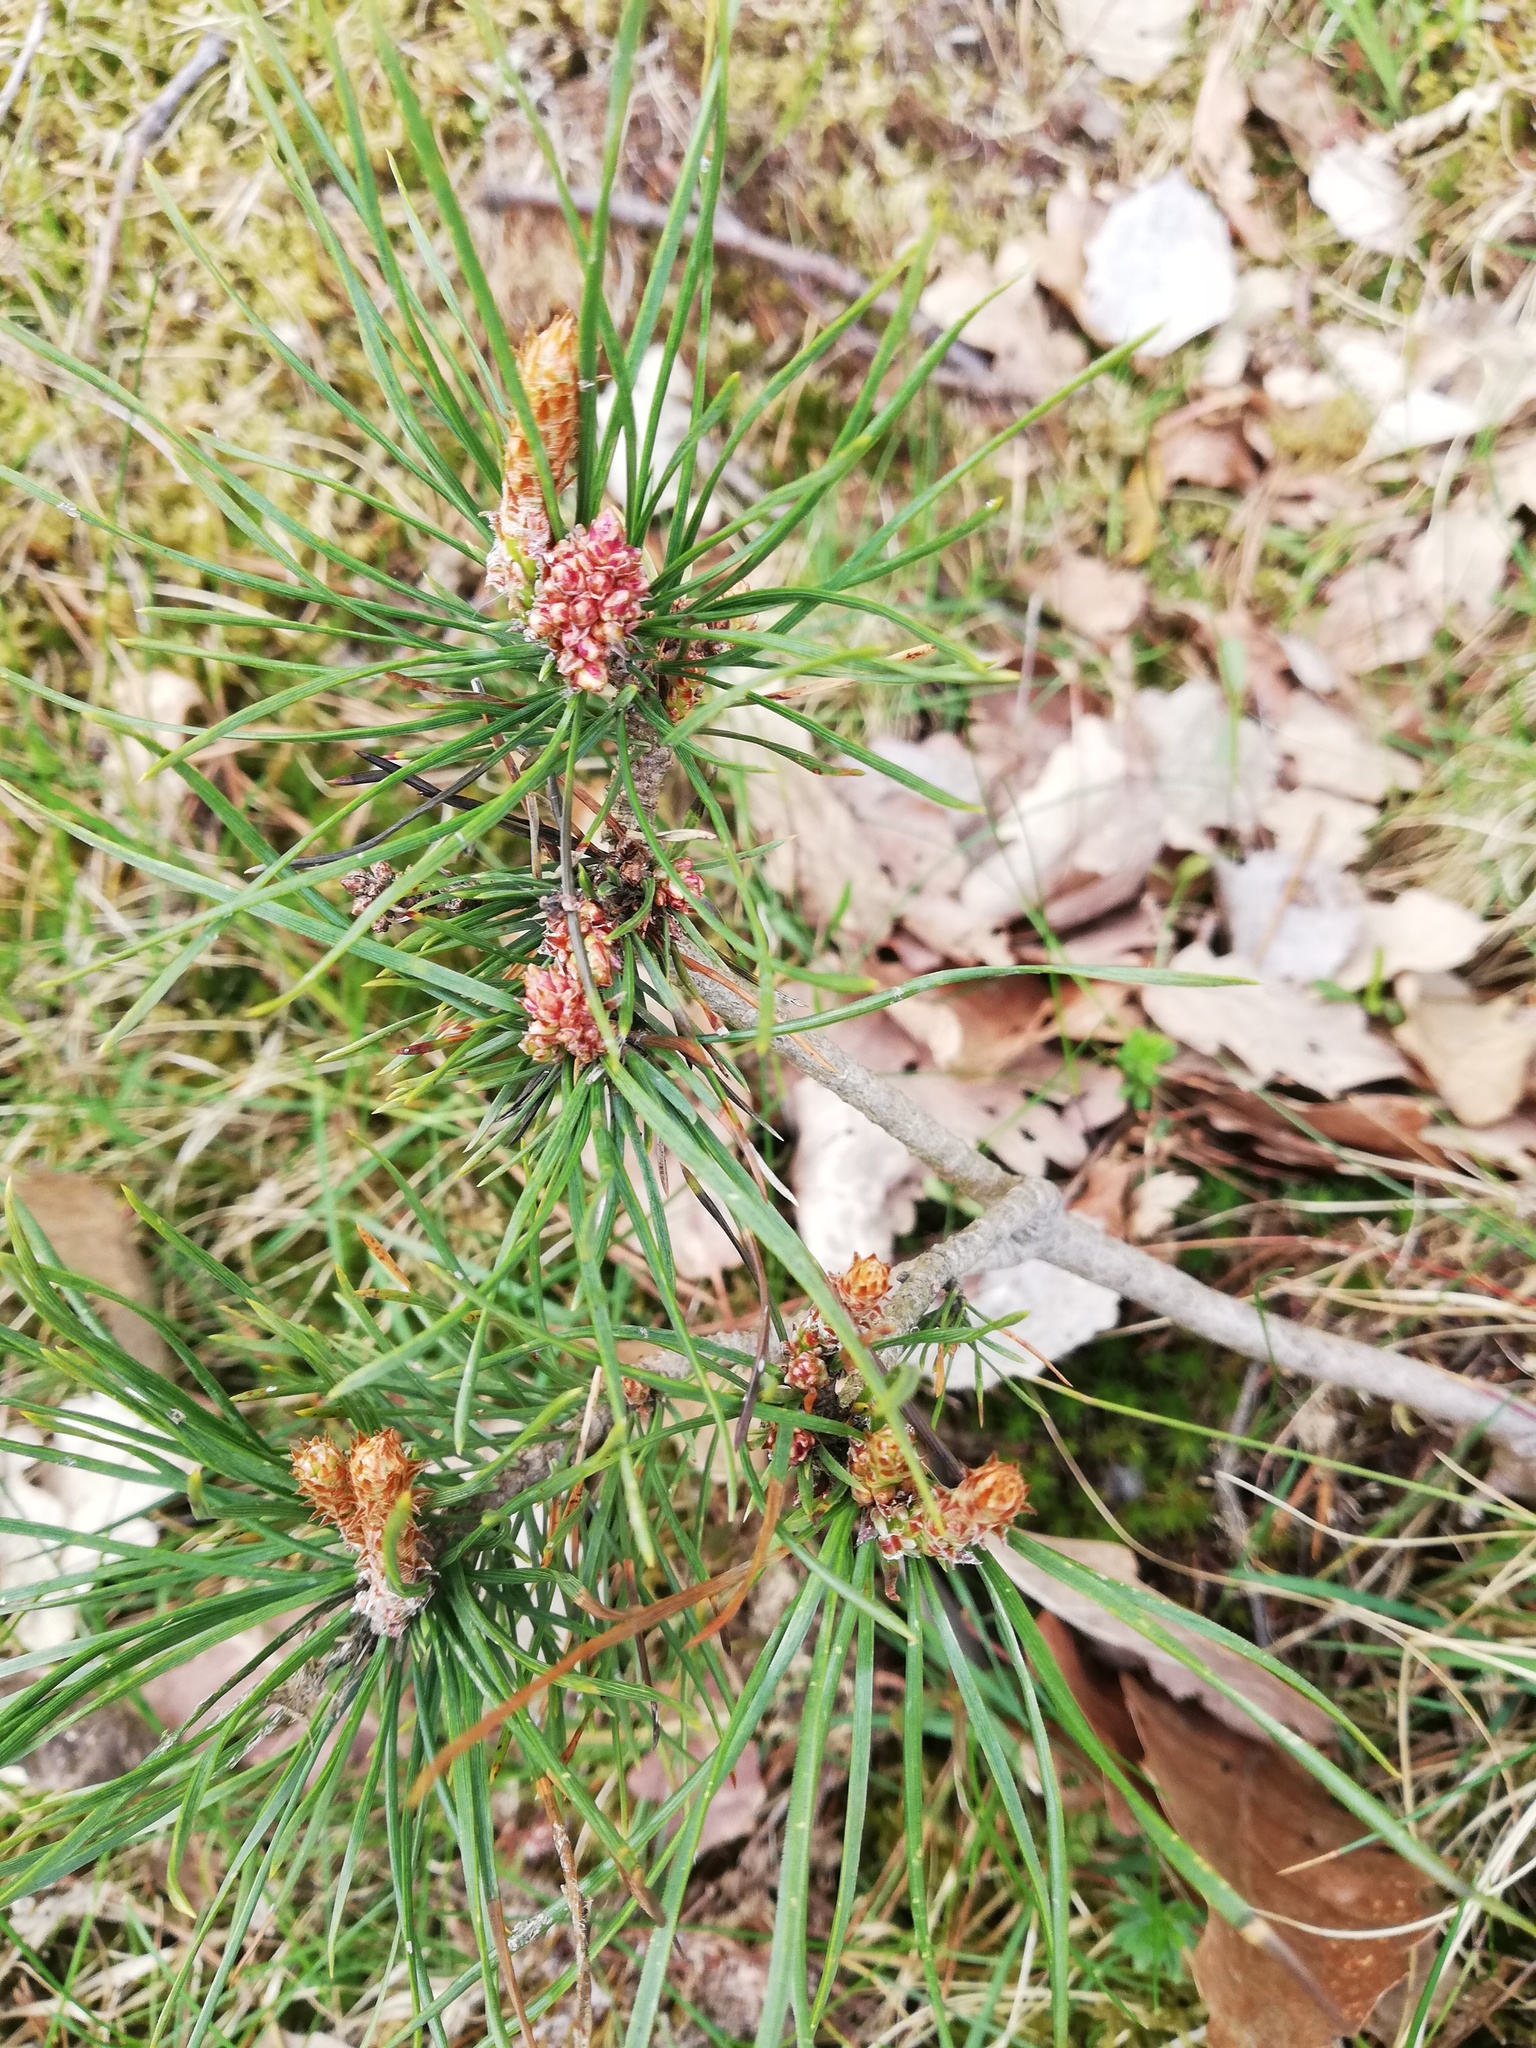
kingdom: Plantae
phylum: Tracheophyta
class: Pinopsida
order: Pinales
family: Pinaceae
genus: Pinus
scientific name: Pinus sylvestris
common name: Scots pine
